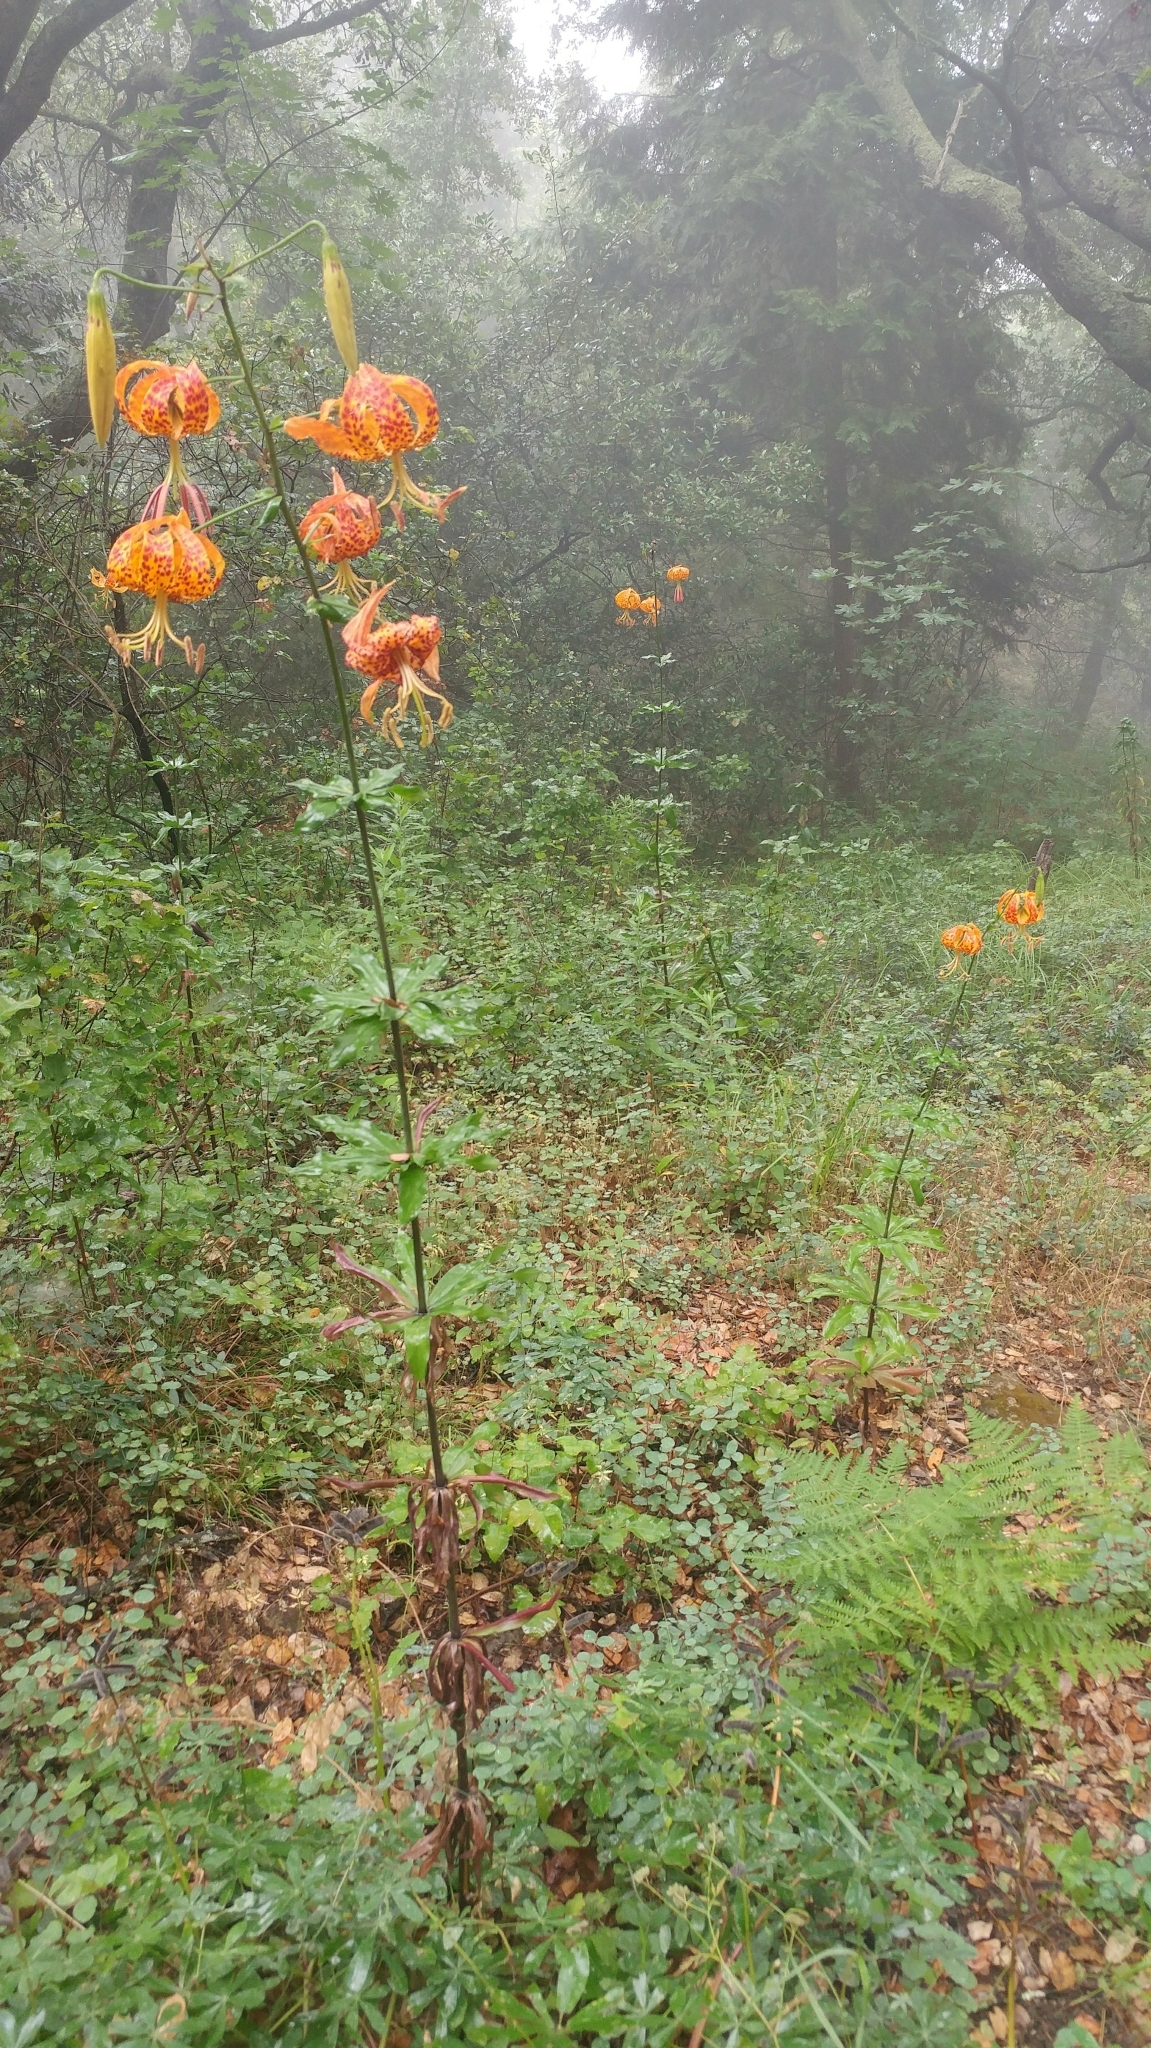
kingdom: Plantae
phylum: Tracheophyta
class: Liliopsida
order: Liliales
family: Liliaceae
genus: Lilium
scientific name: Lilium humboldtii
